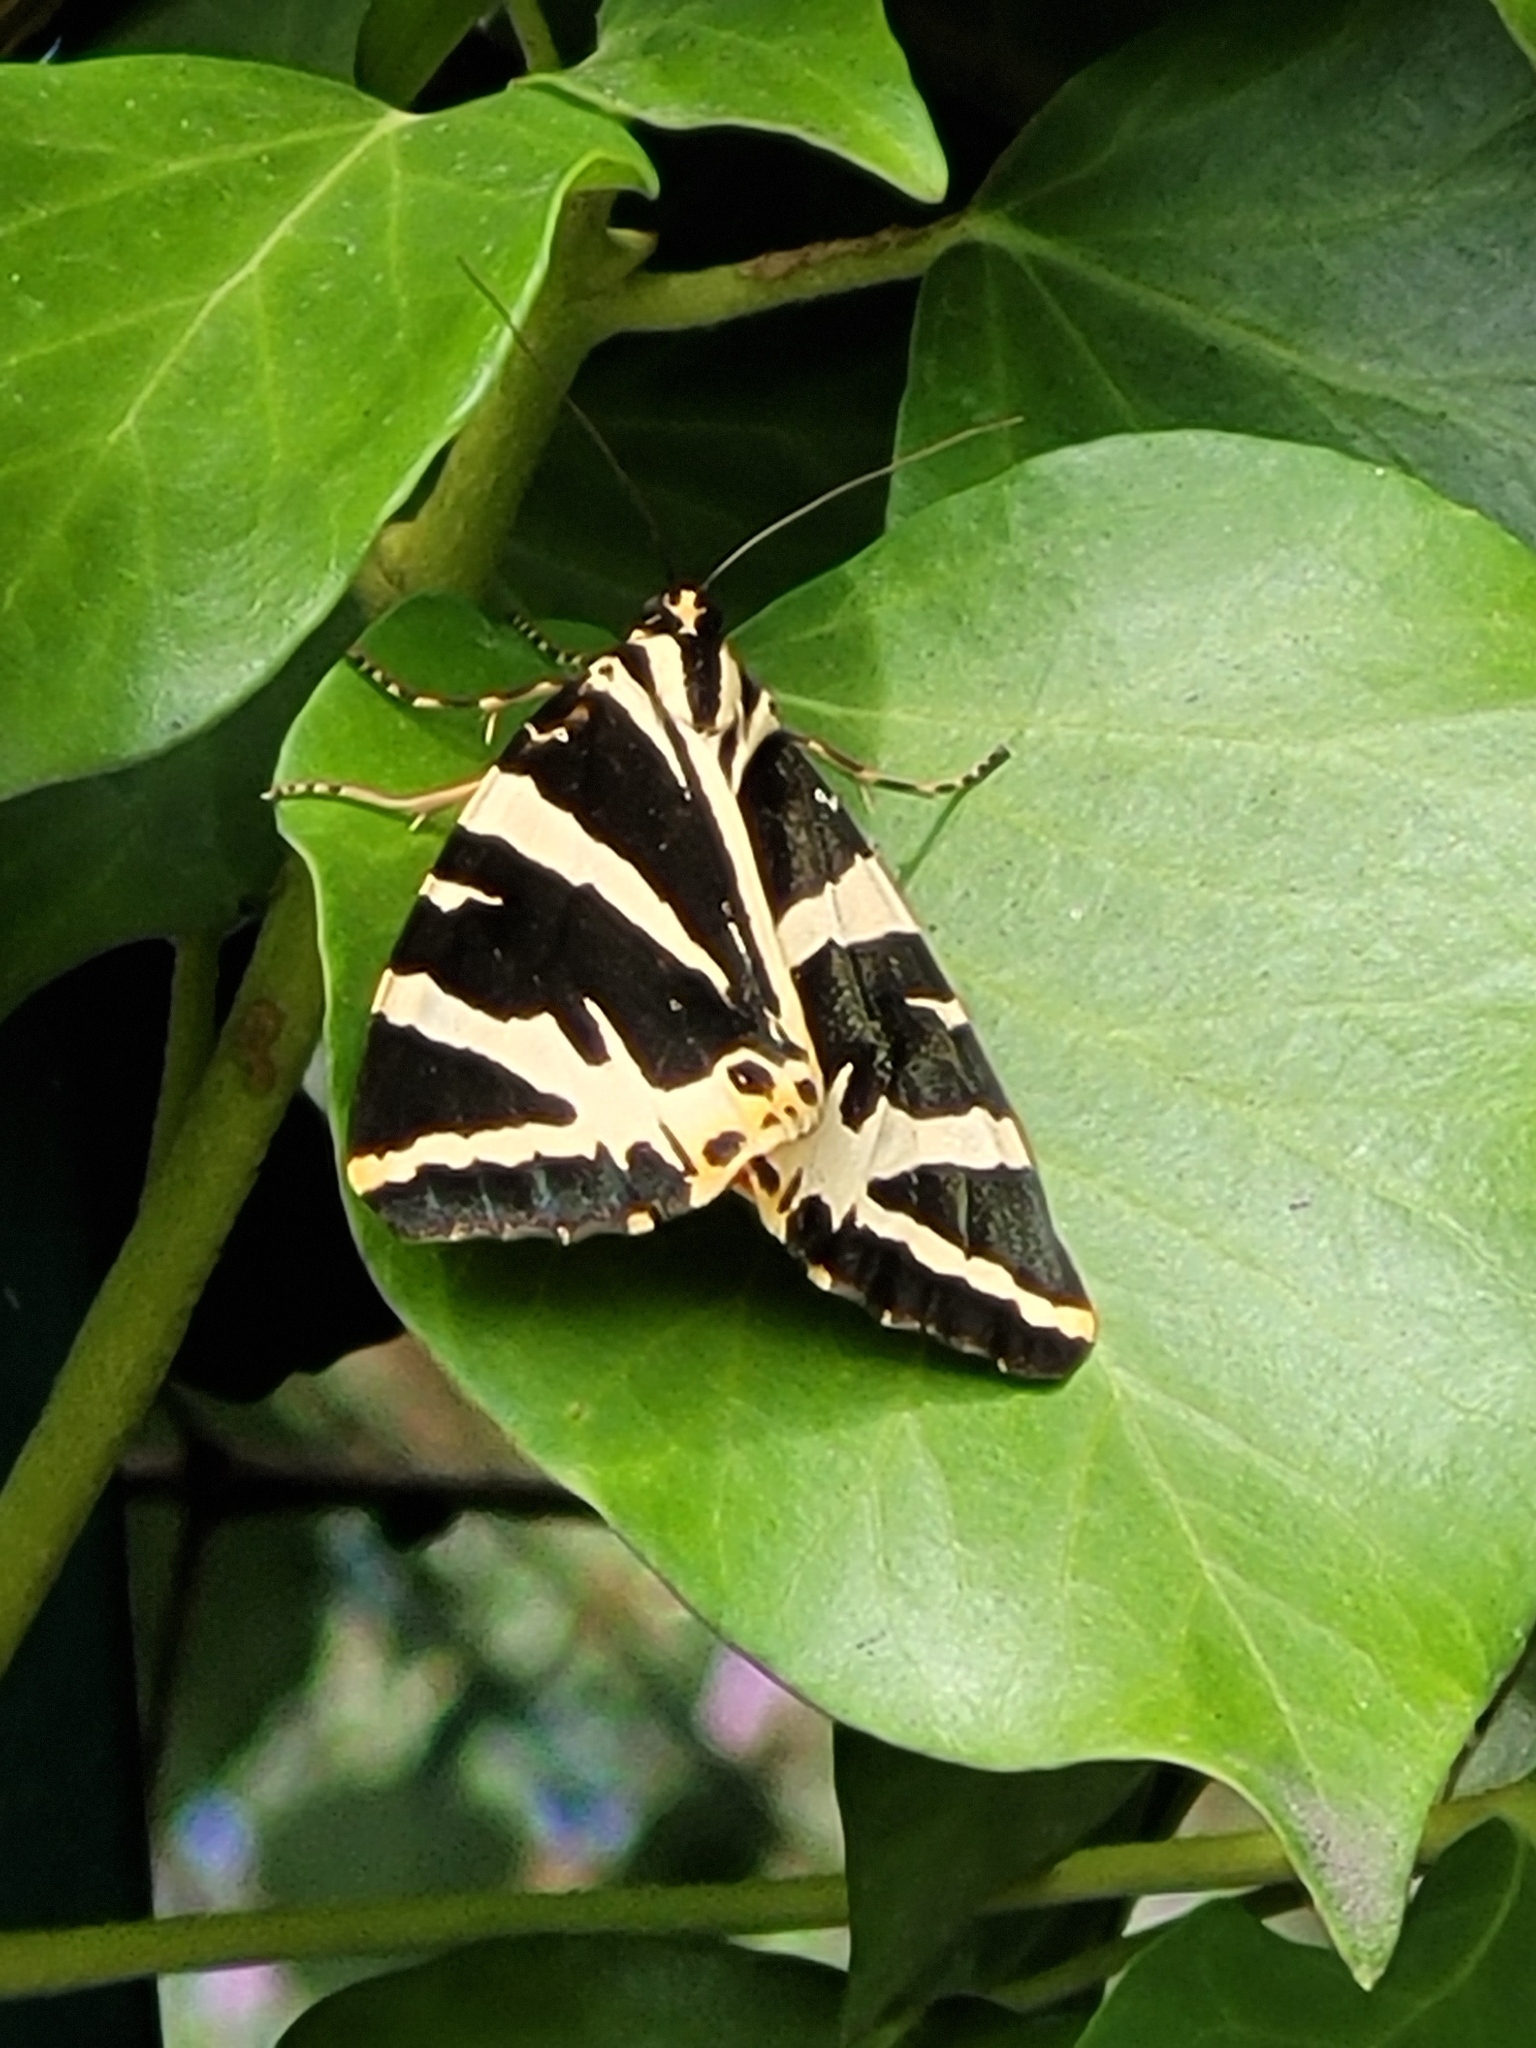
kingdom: Animalia
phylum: Arthropoda
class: Insecta
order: Lepidoptera
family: Erebidae
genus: Euplagia
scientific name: Euplagia quadripunctaria
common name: Jersey tiger
